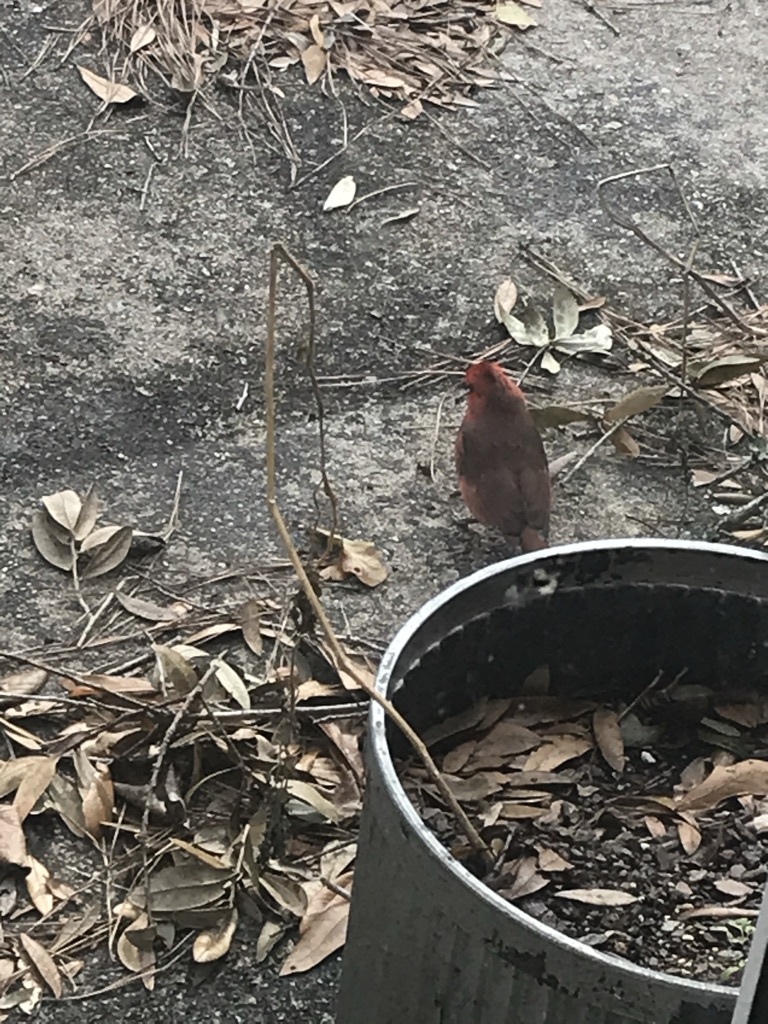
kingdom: Animalia
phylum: Chordata
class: Aves
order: Passeriformes
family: Cardinalidae
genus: Cardinalis
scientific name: Cardinalis cardinalis
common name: Northern cardinal
